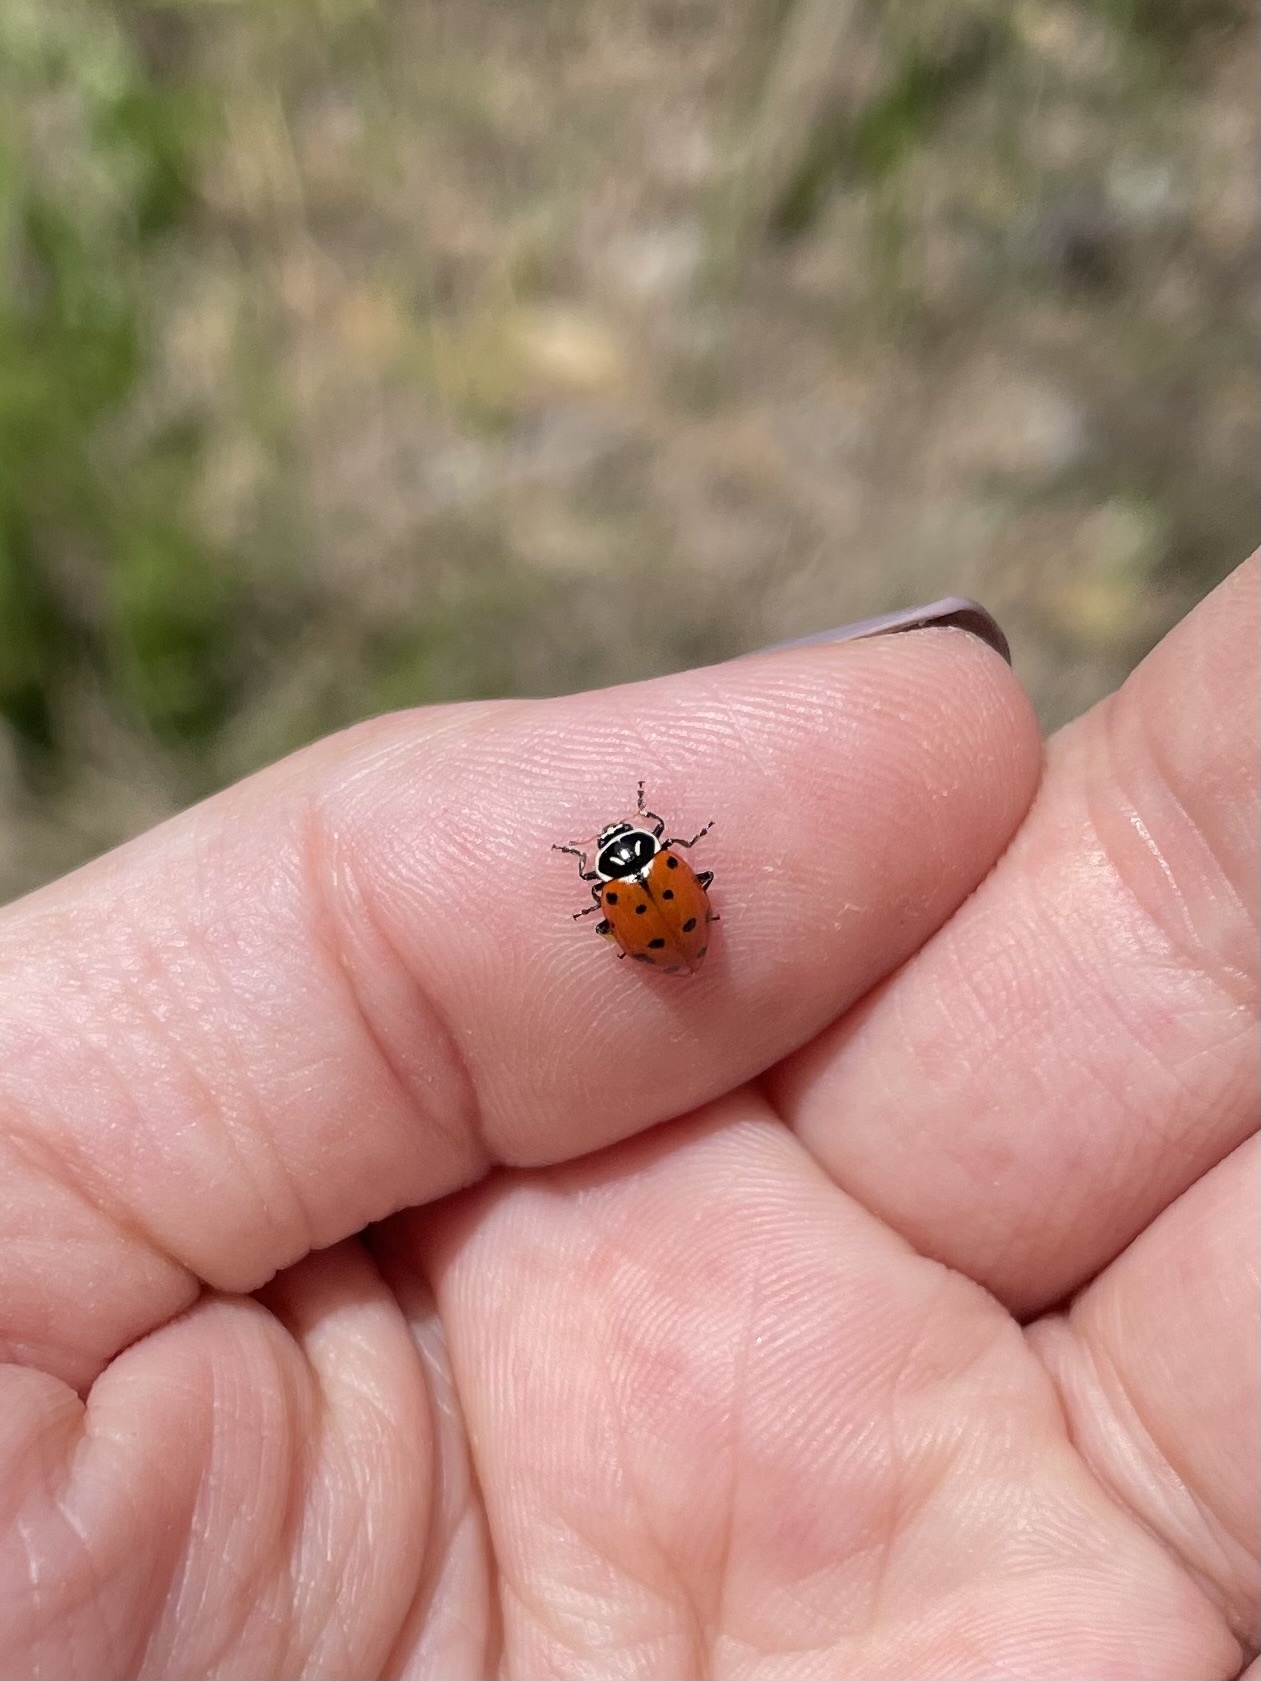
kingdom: Animalia
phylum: Arthropoda
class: Insecta
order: Coleoptera
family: Coccinellidae
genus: Hippodamia
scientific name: Hippodamia convergens
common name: Convergent lady beetle
